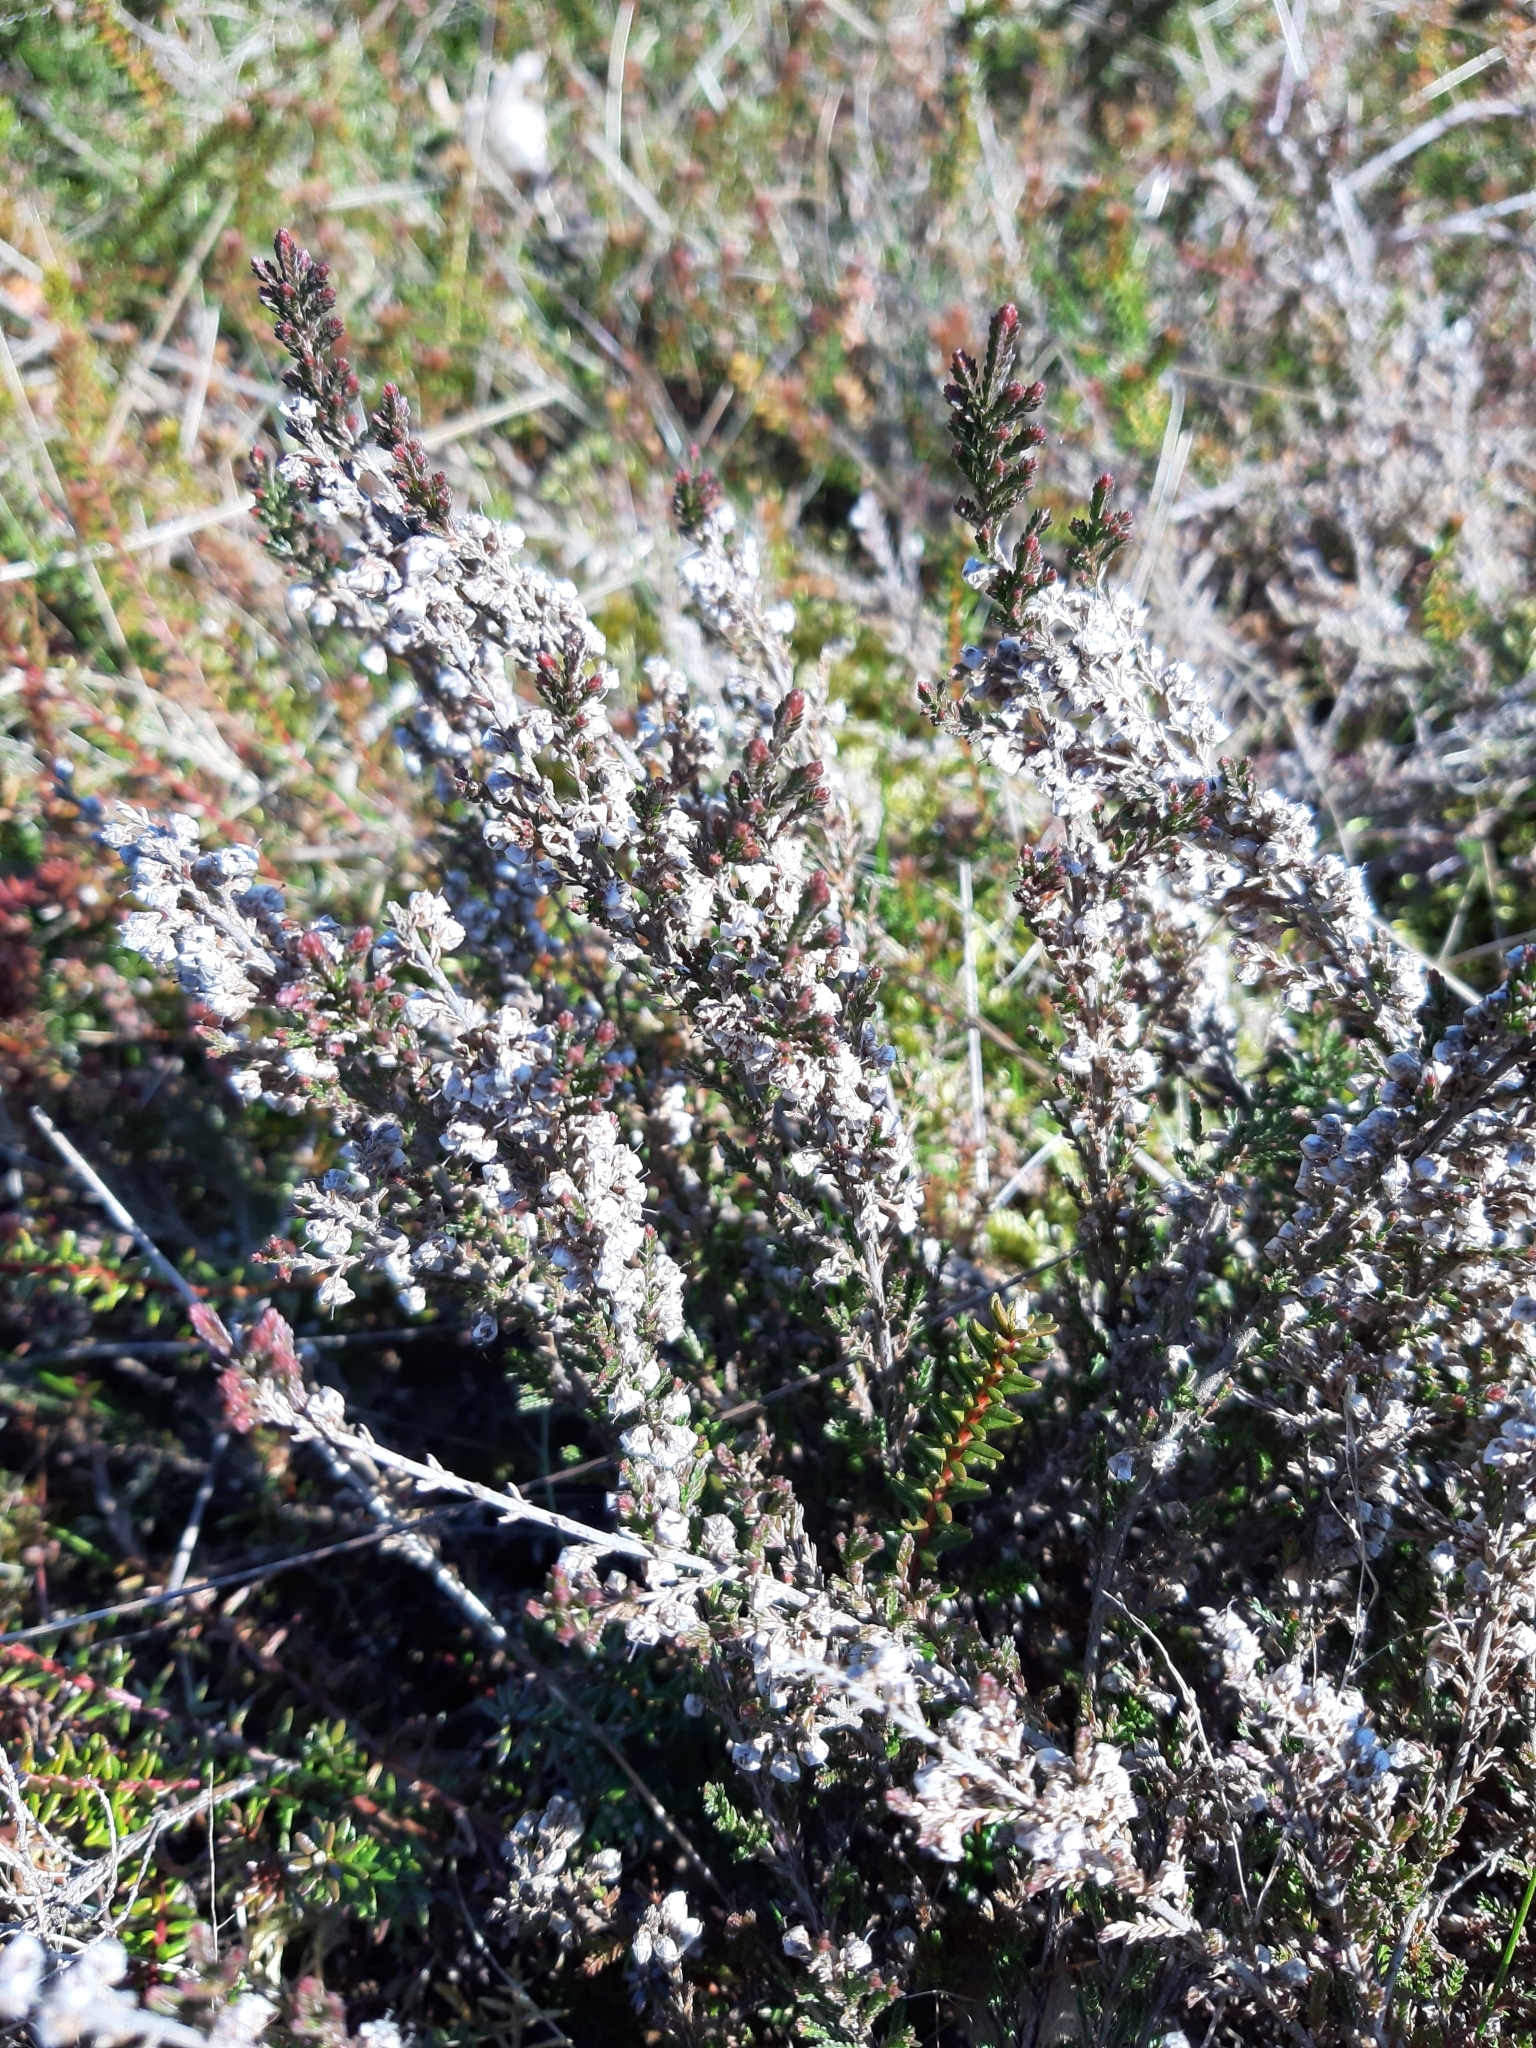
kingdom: Plantae
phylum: Tracheophyta
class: Magnoliopsida
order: Ericales
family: Ericaceae
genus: Calluna
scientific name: Calluna vulgaris
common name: Heather
